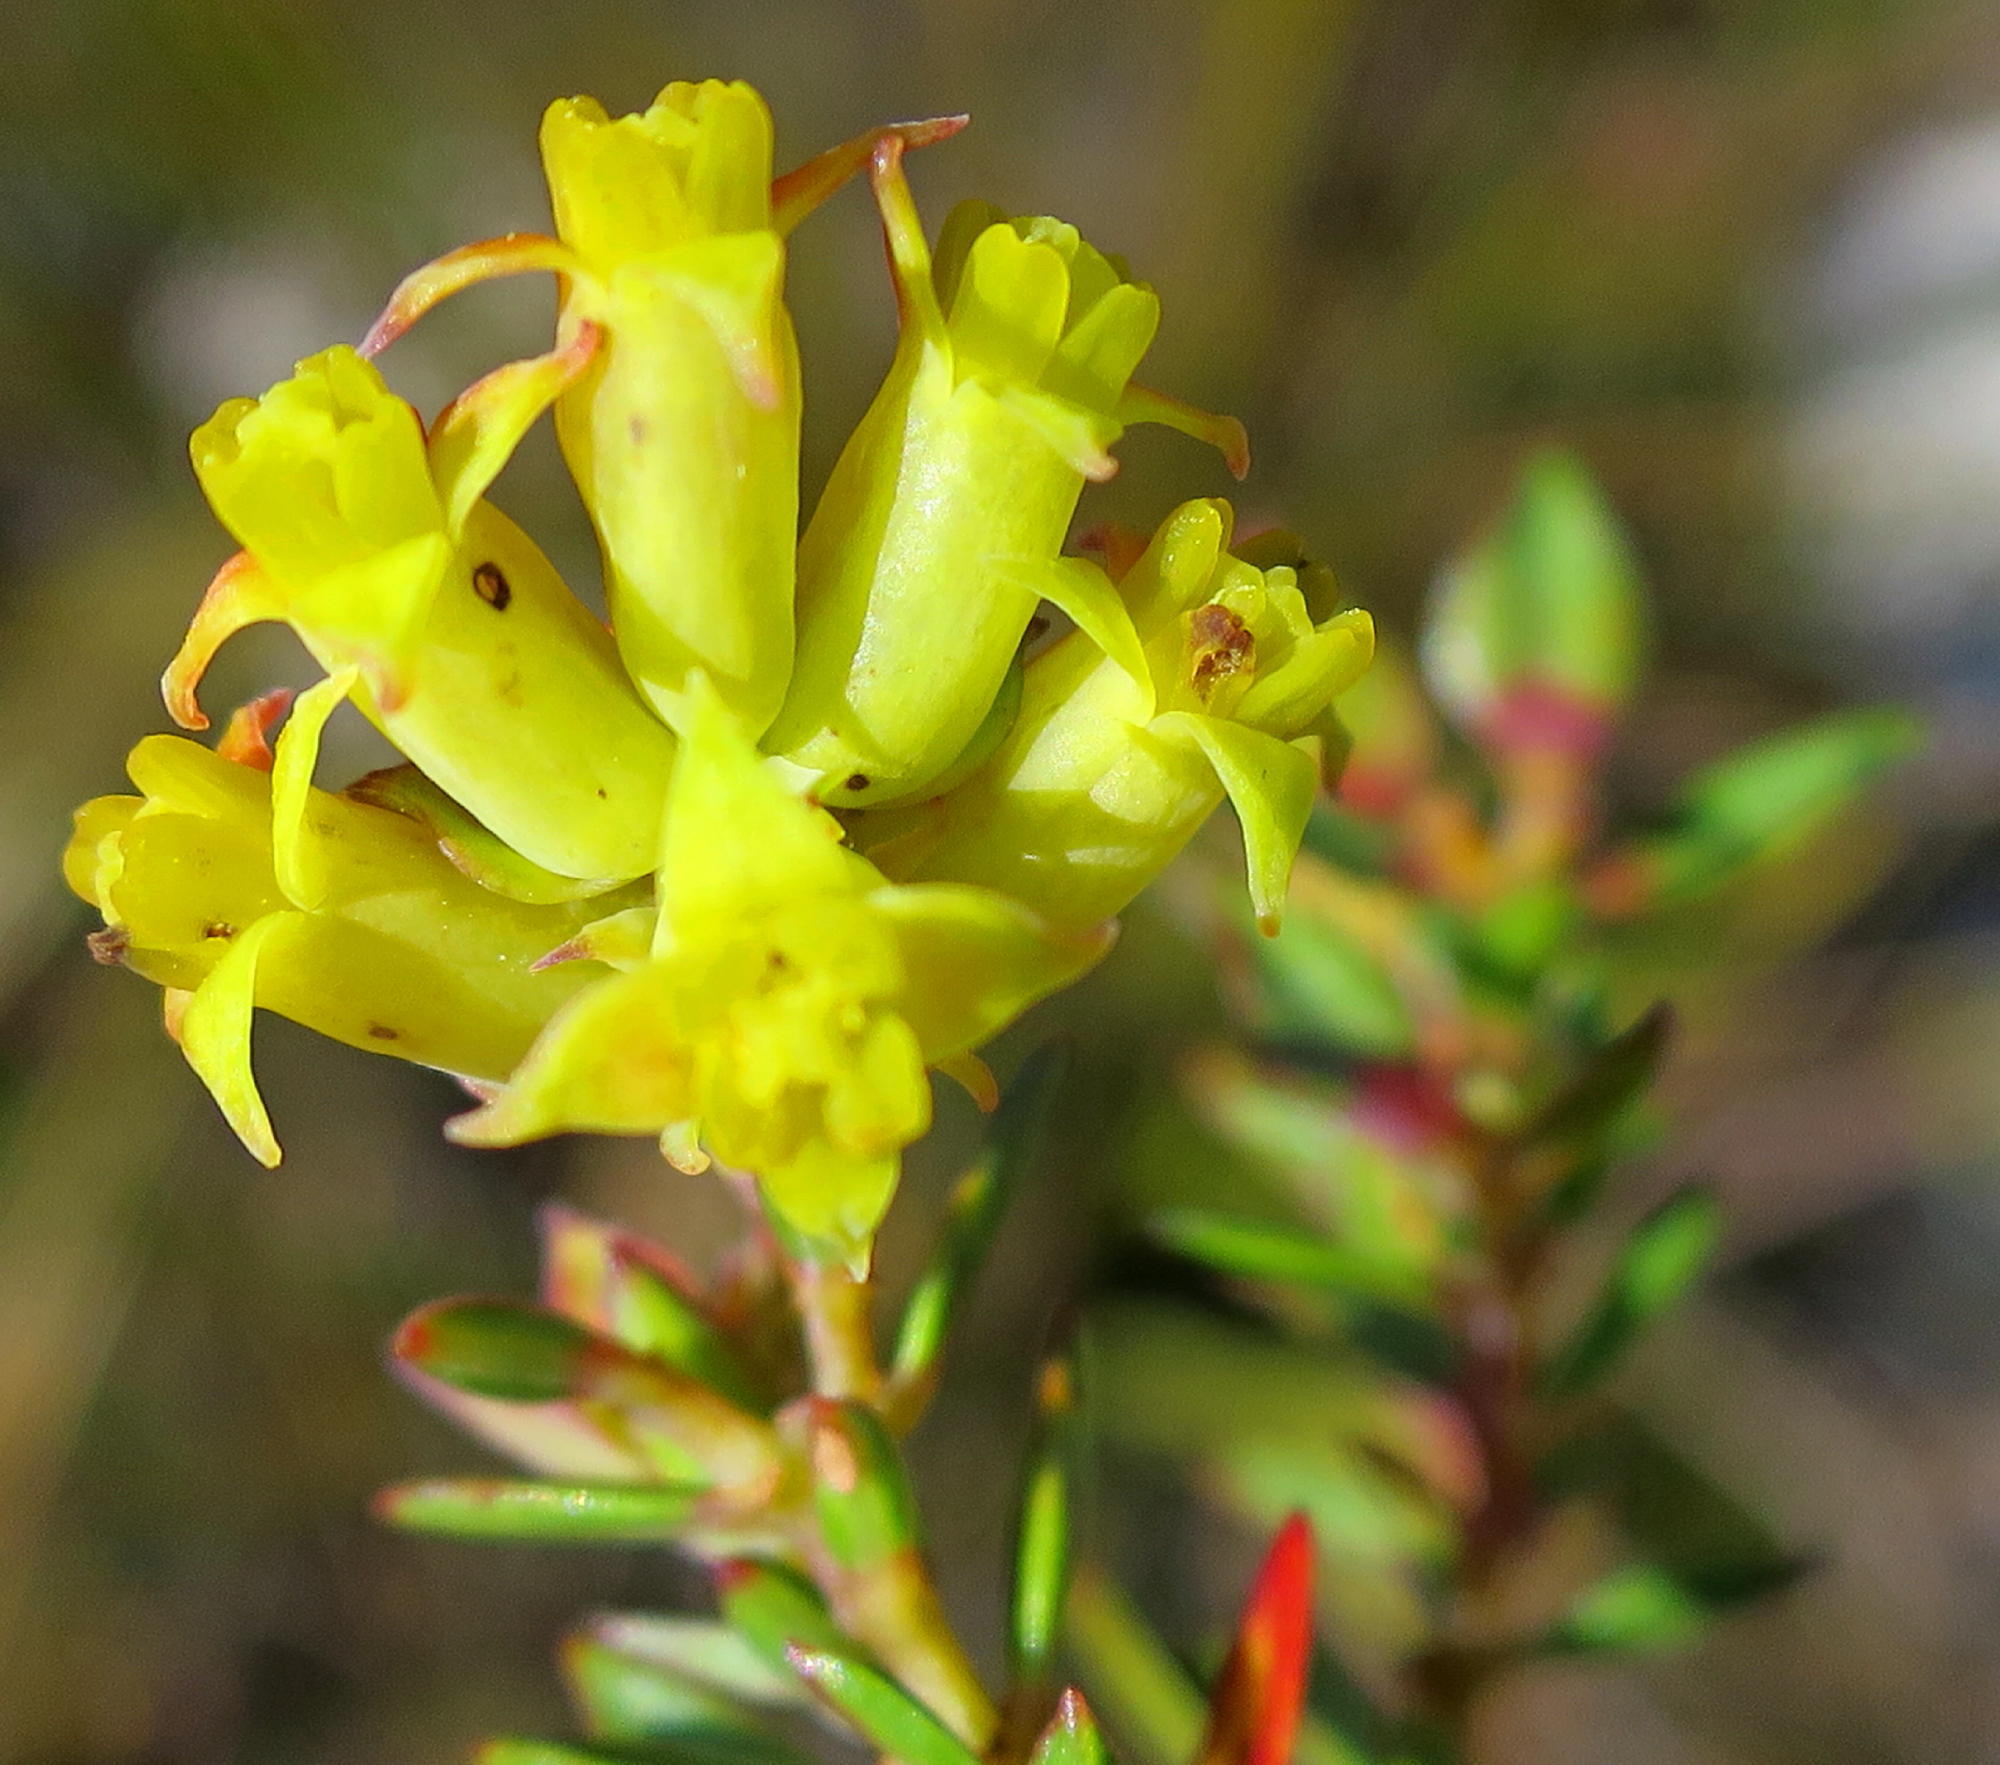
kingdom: Plantae
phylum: Tracheophyta
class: Magnoliopsida
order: Myrtales
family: Penaeaceae
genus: Penaea
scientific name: Penaea acutifolia
